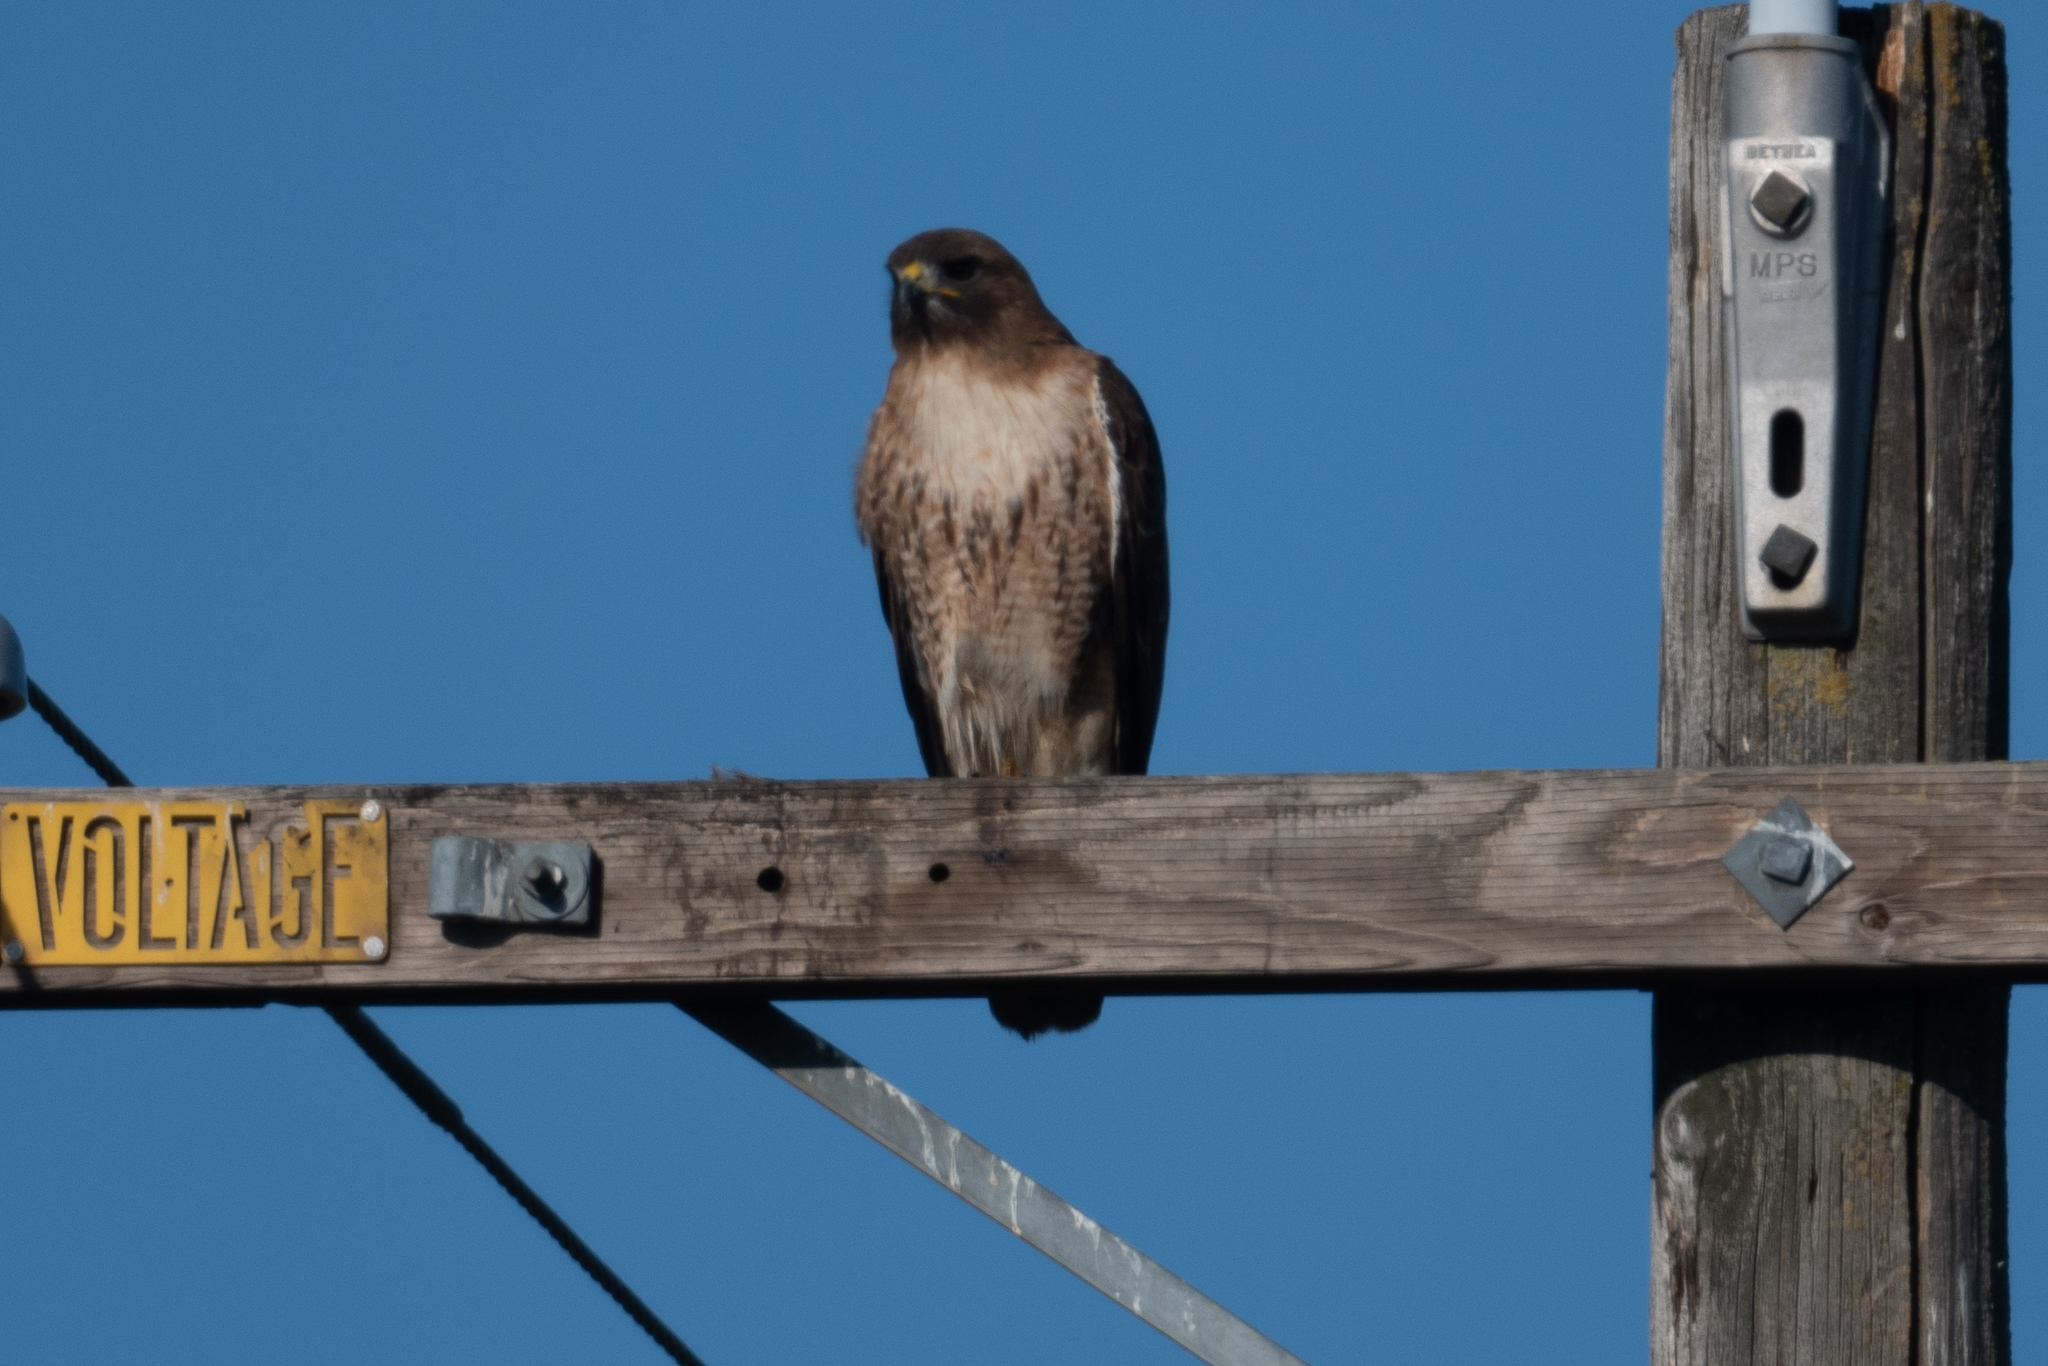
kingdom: Animalia
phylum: Chordata
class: Aves
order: Accipitriformes
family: Accipitridae
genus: Buteo
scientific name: Buteo jamaicensis
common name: Red-tailed hawk
